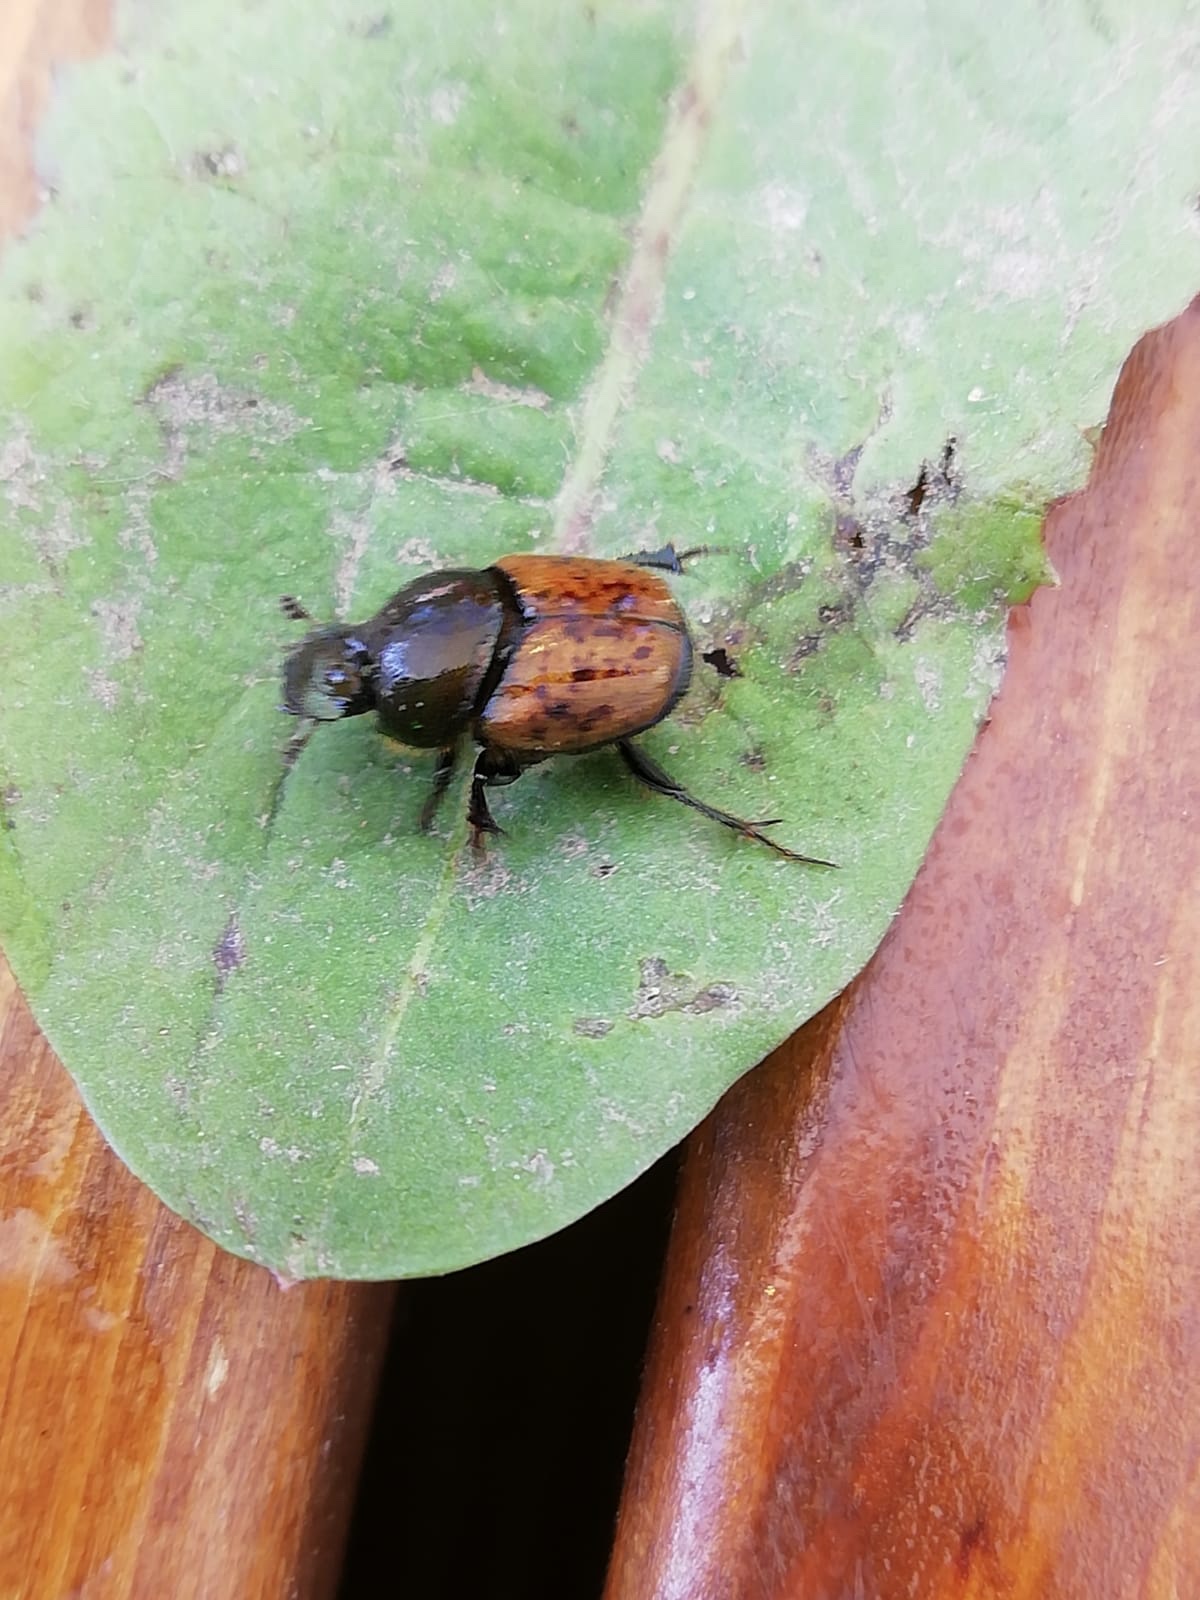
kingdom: Animalia
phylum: Arthropoda
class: Insecta
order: Coleoptera
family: Scarabaeidae
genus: Onthophagus
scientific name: Onthophagus coenobita
